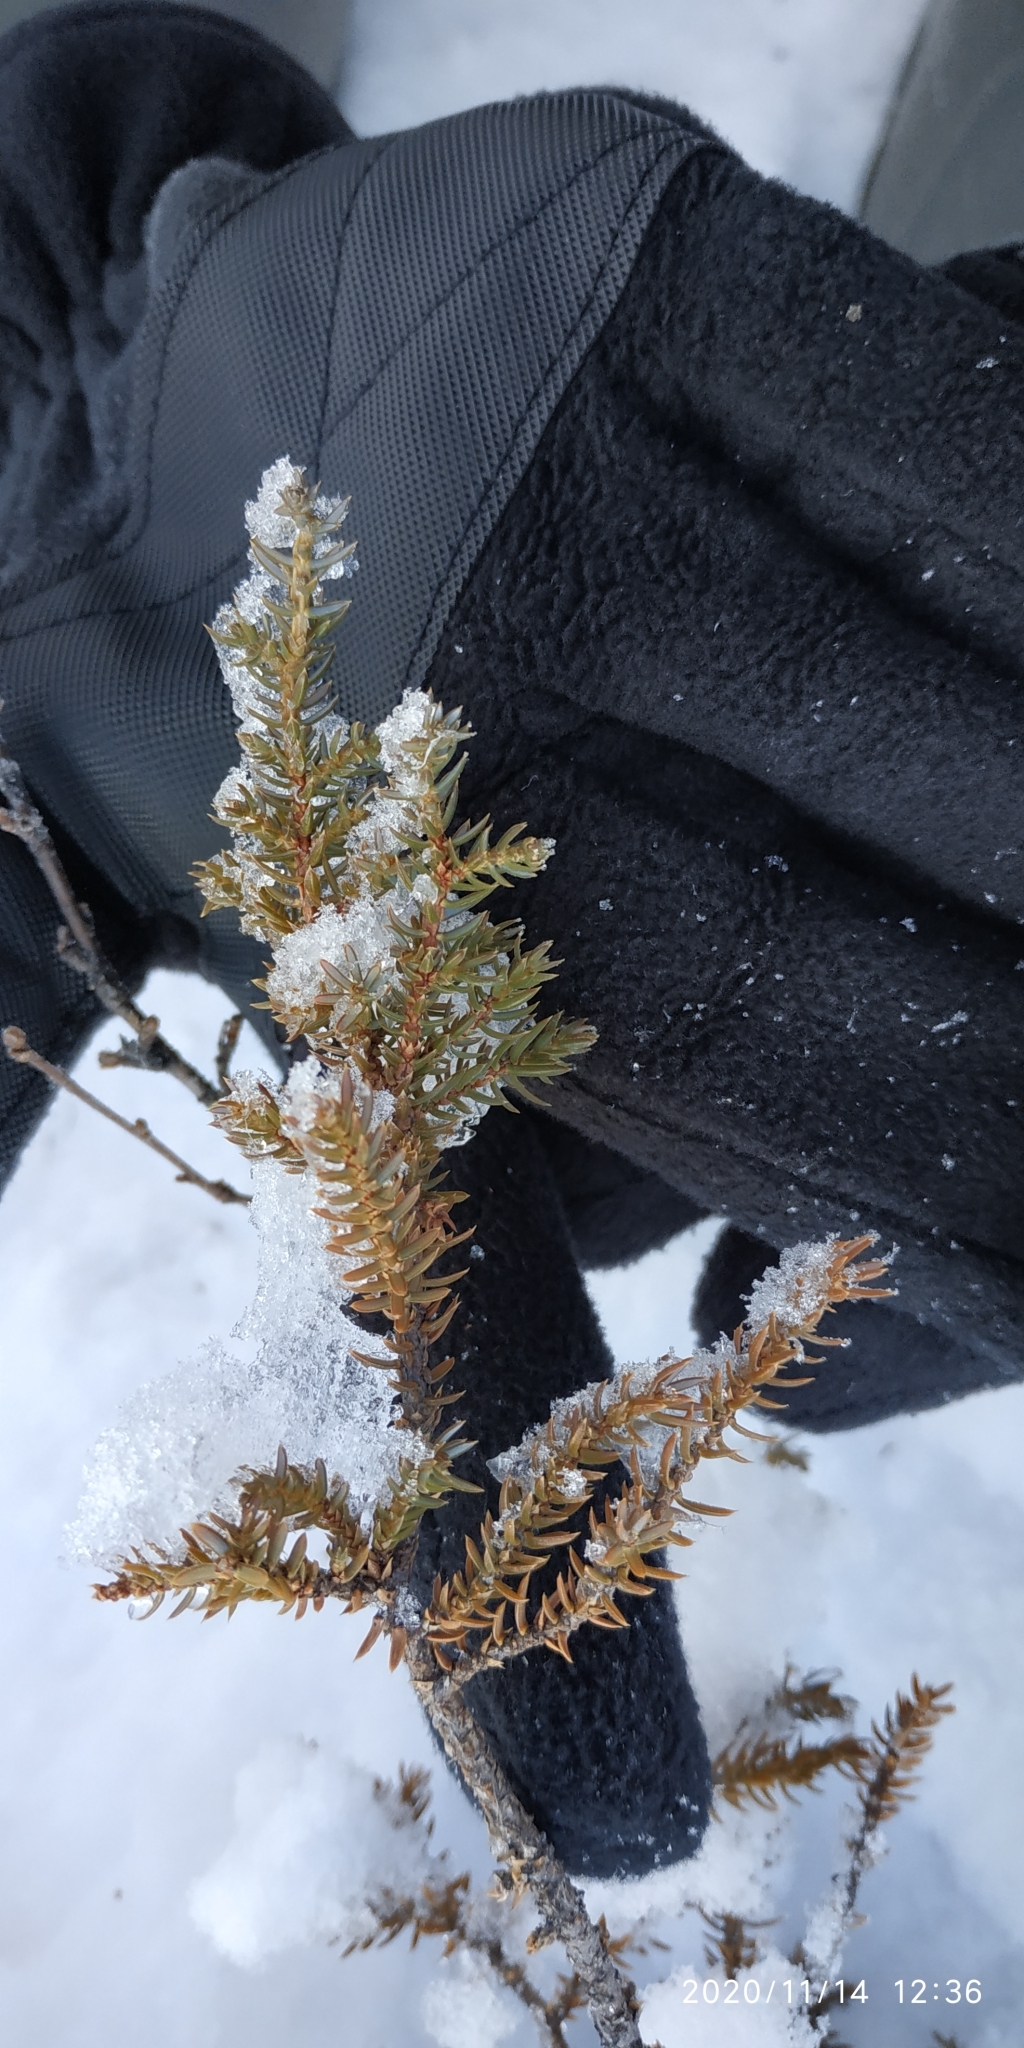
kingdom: Plantae
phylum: Tracheophyta
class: Pinopsida
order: Pinales
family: Cupressaceae
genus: Juniperus
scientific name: Juniperus communis
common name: Common juniper
